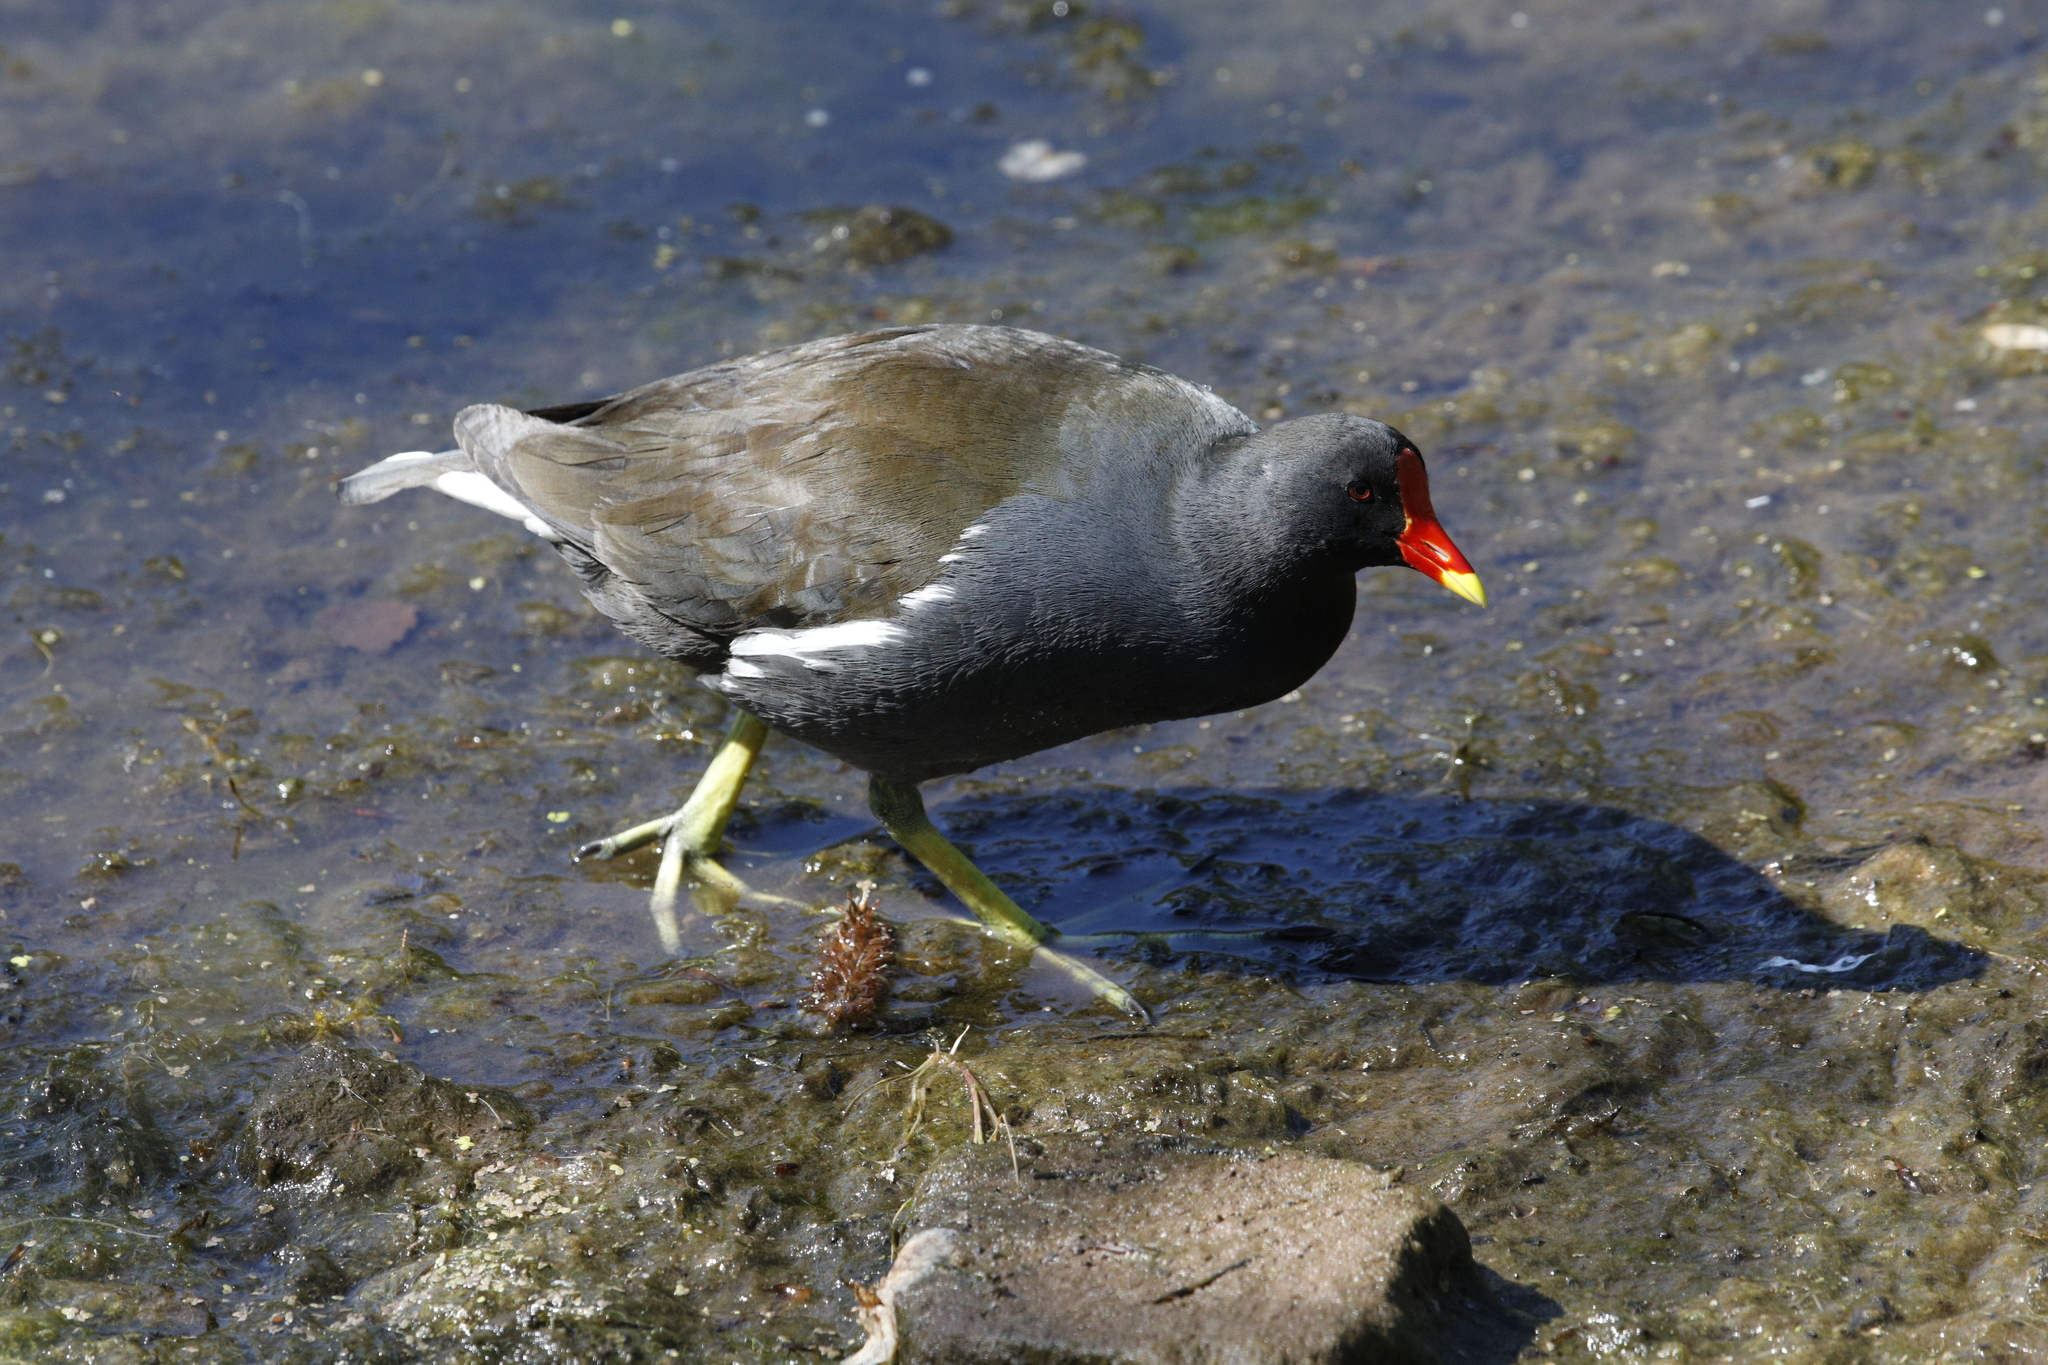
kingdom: Animalia
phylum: Chordata
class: Aves
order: Gruiformes
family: Rallidae
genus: Gallinula
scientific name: Gallinula chloropus
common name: Common moorhen
